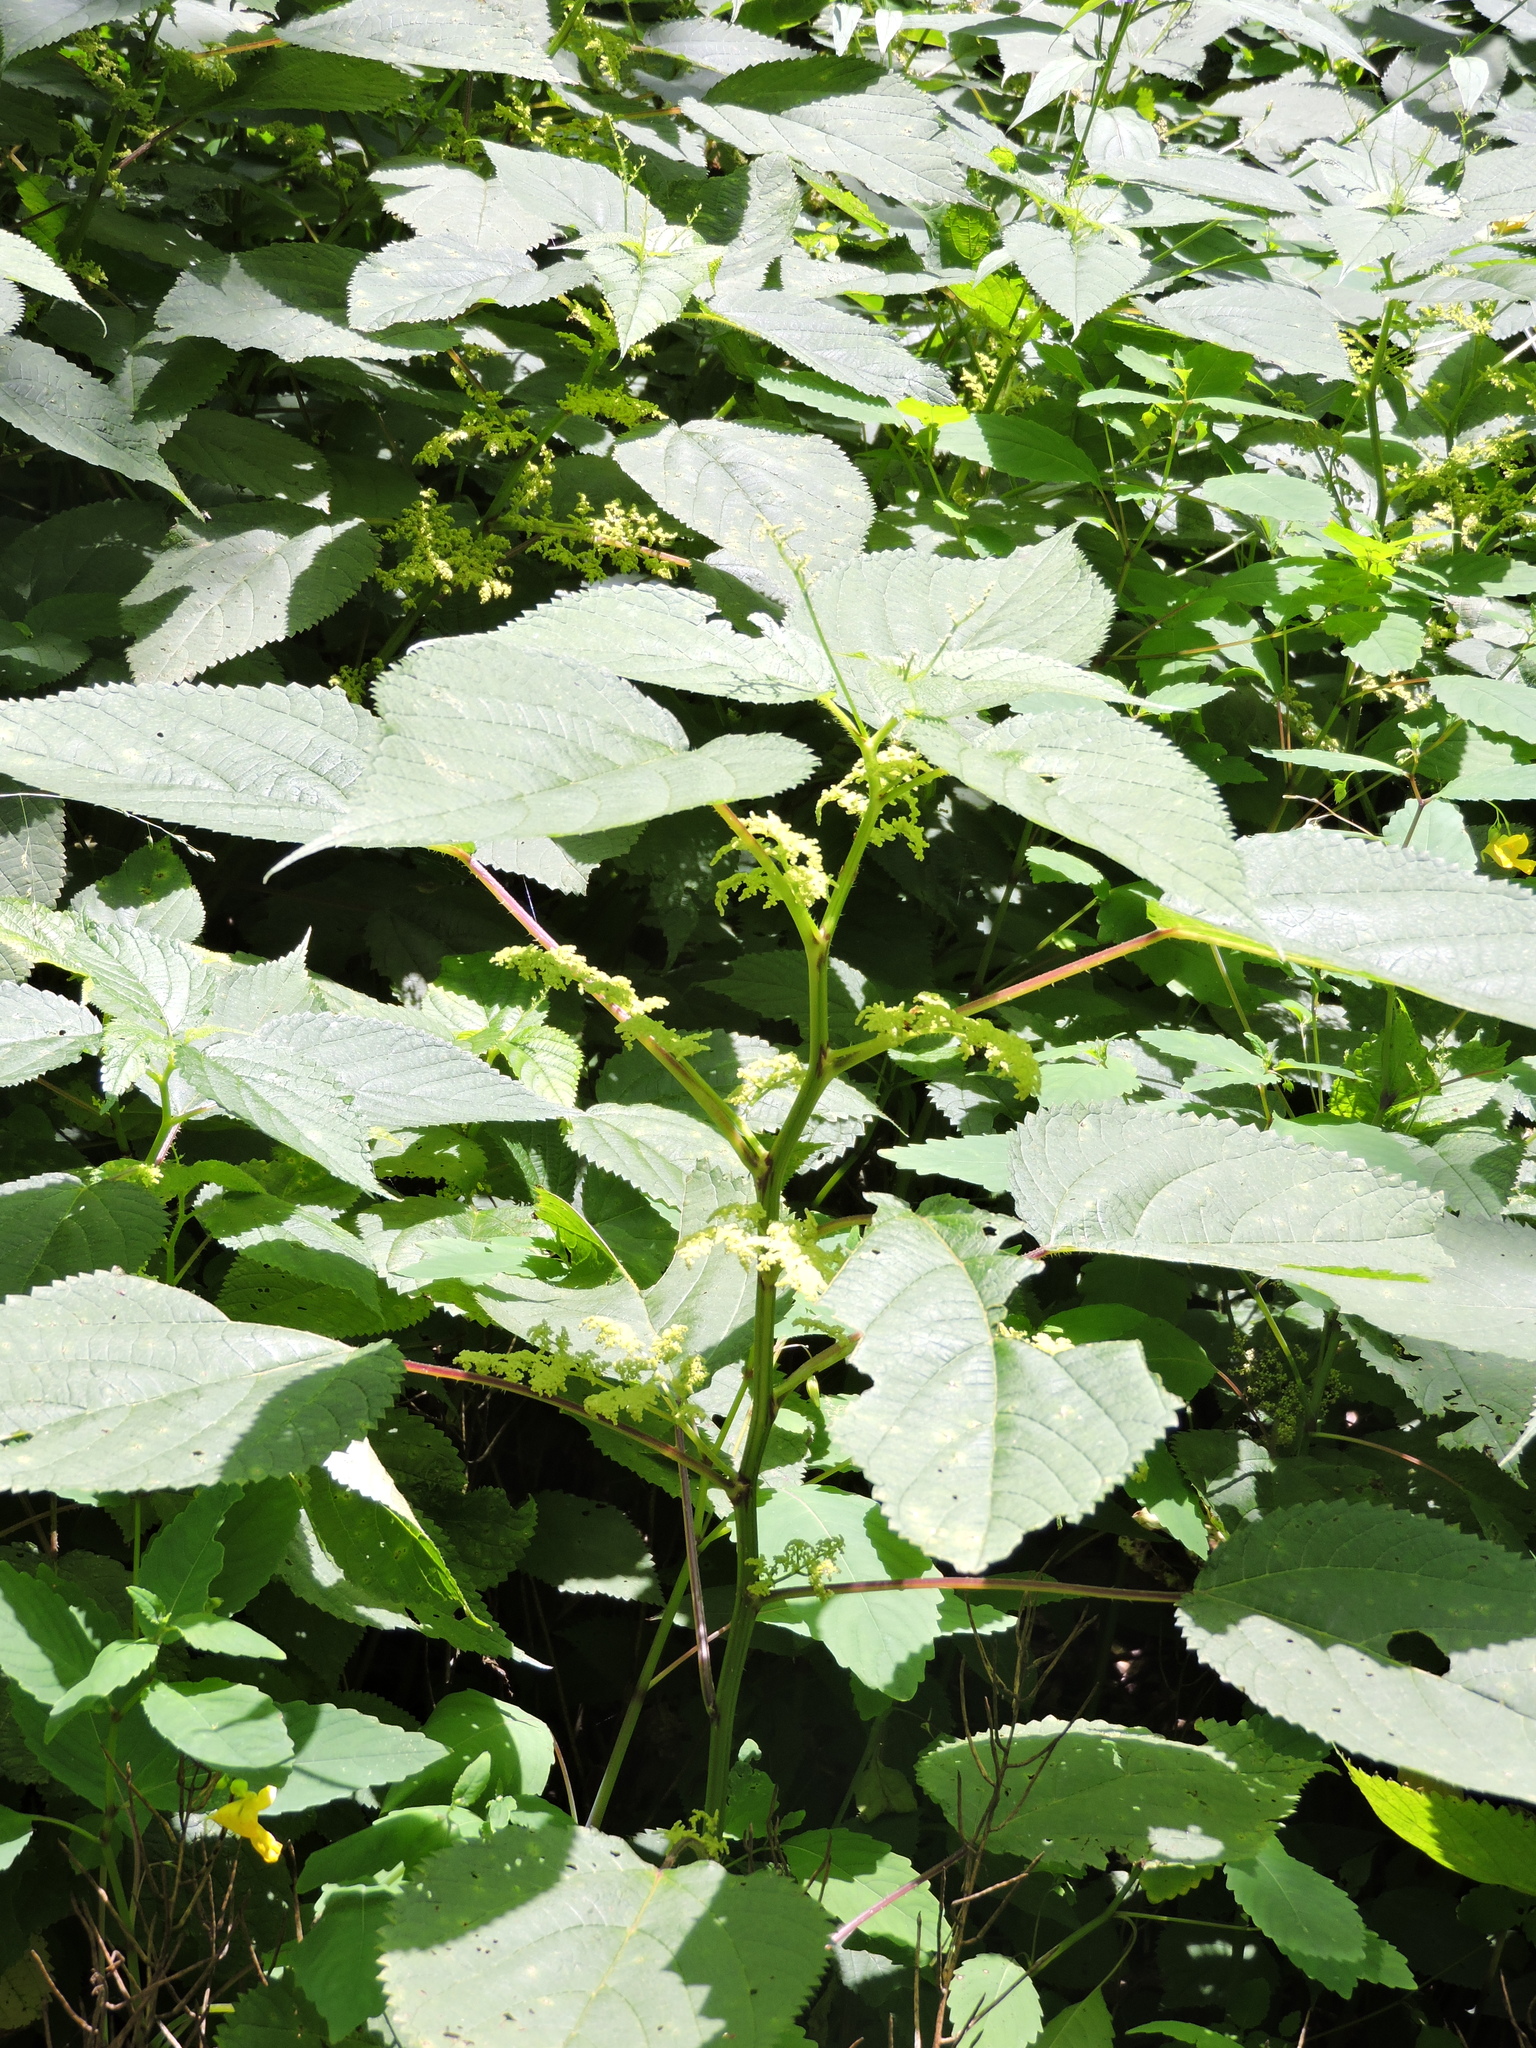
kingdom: Plantae
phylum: Tracheophyta
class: Magnoliopsida
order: Rosales
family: Urticaceae
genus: Laportea
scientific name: Laportea canadensis
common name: Canada nettle
